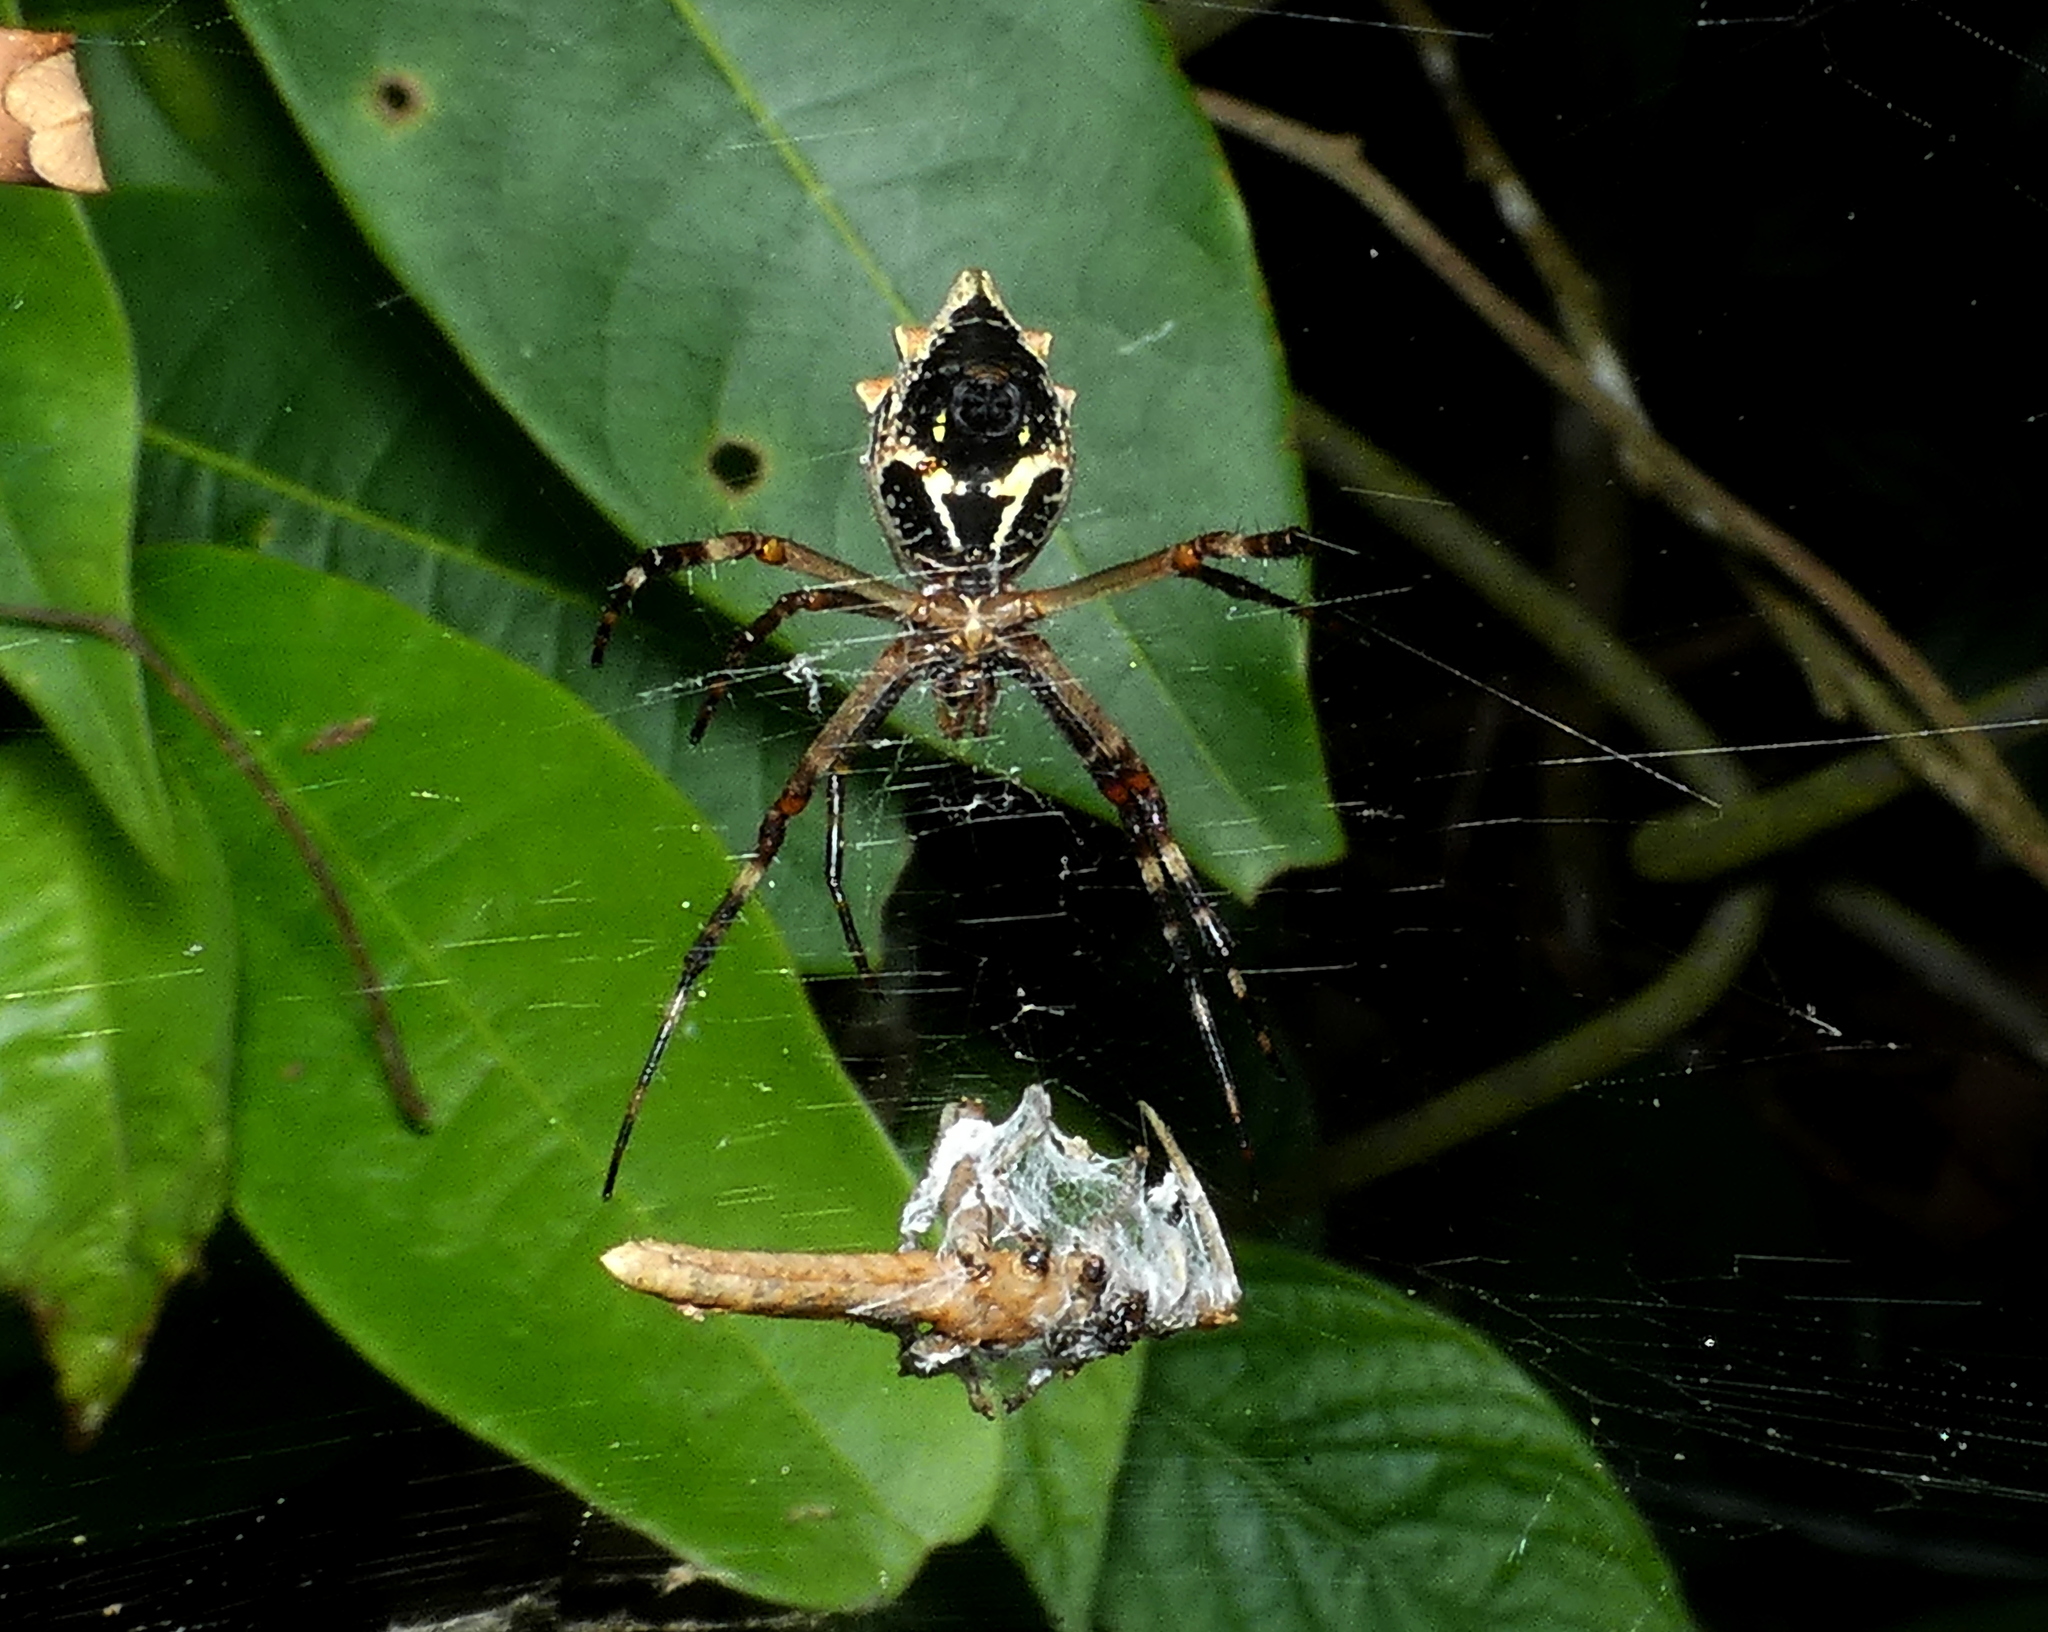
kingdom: Animalia
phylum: Arthropoda
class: Arachnida
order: Araneae
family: Araneidae
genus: Argiope
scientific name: Argiope argentata
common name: Orb weavers
